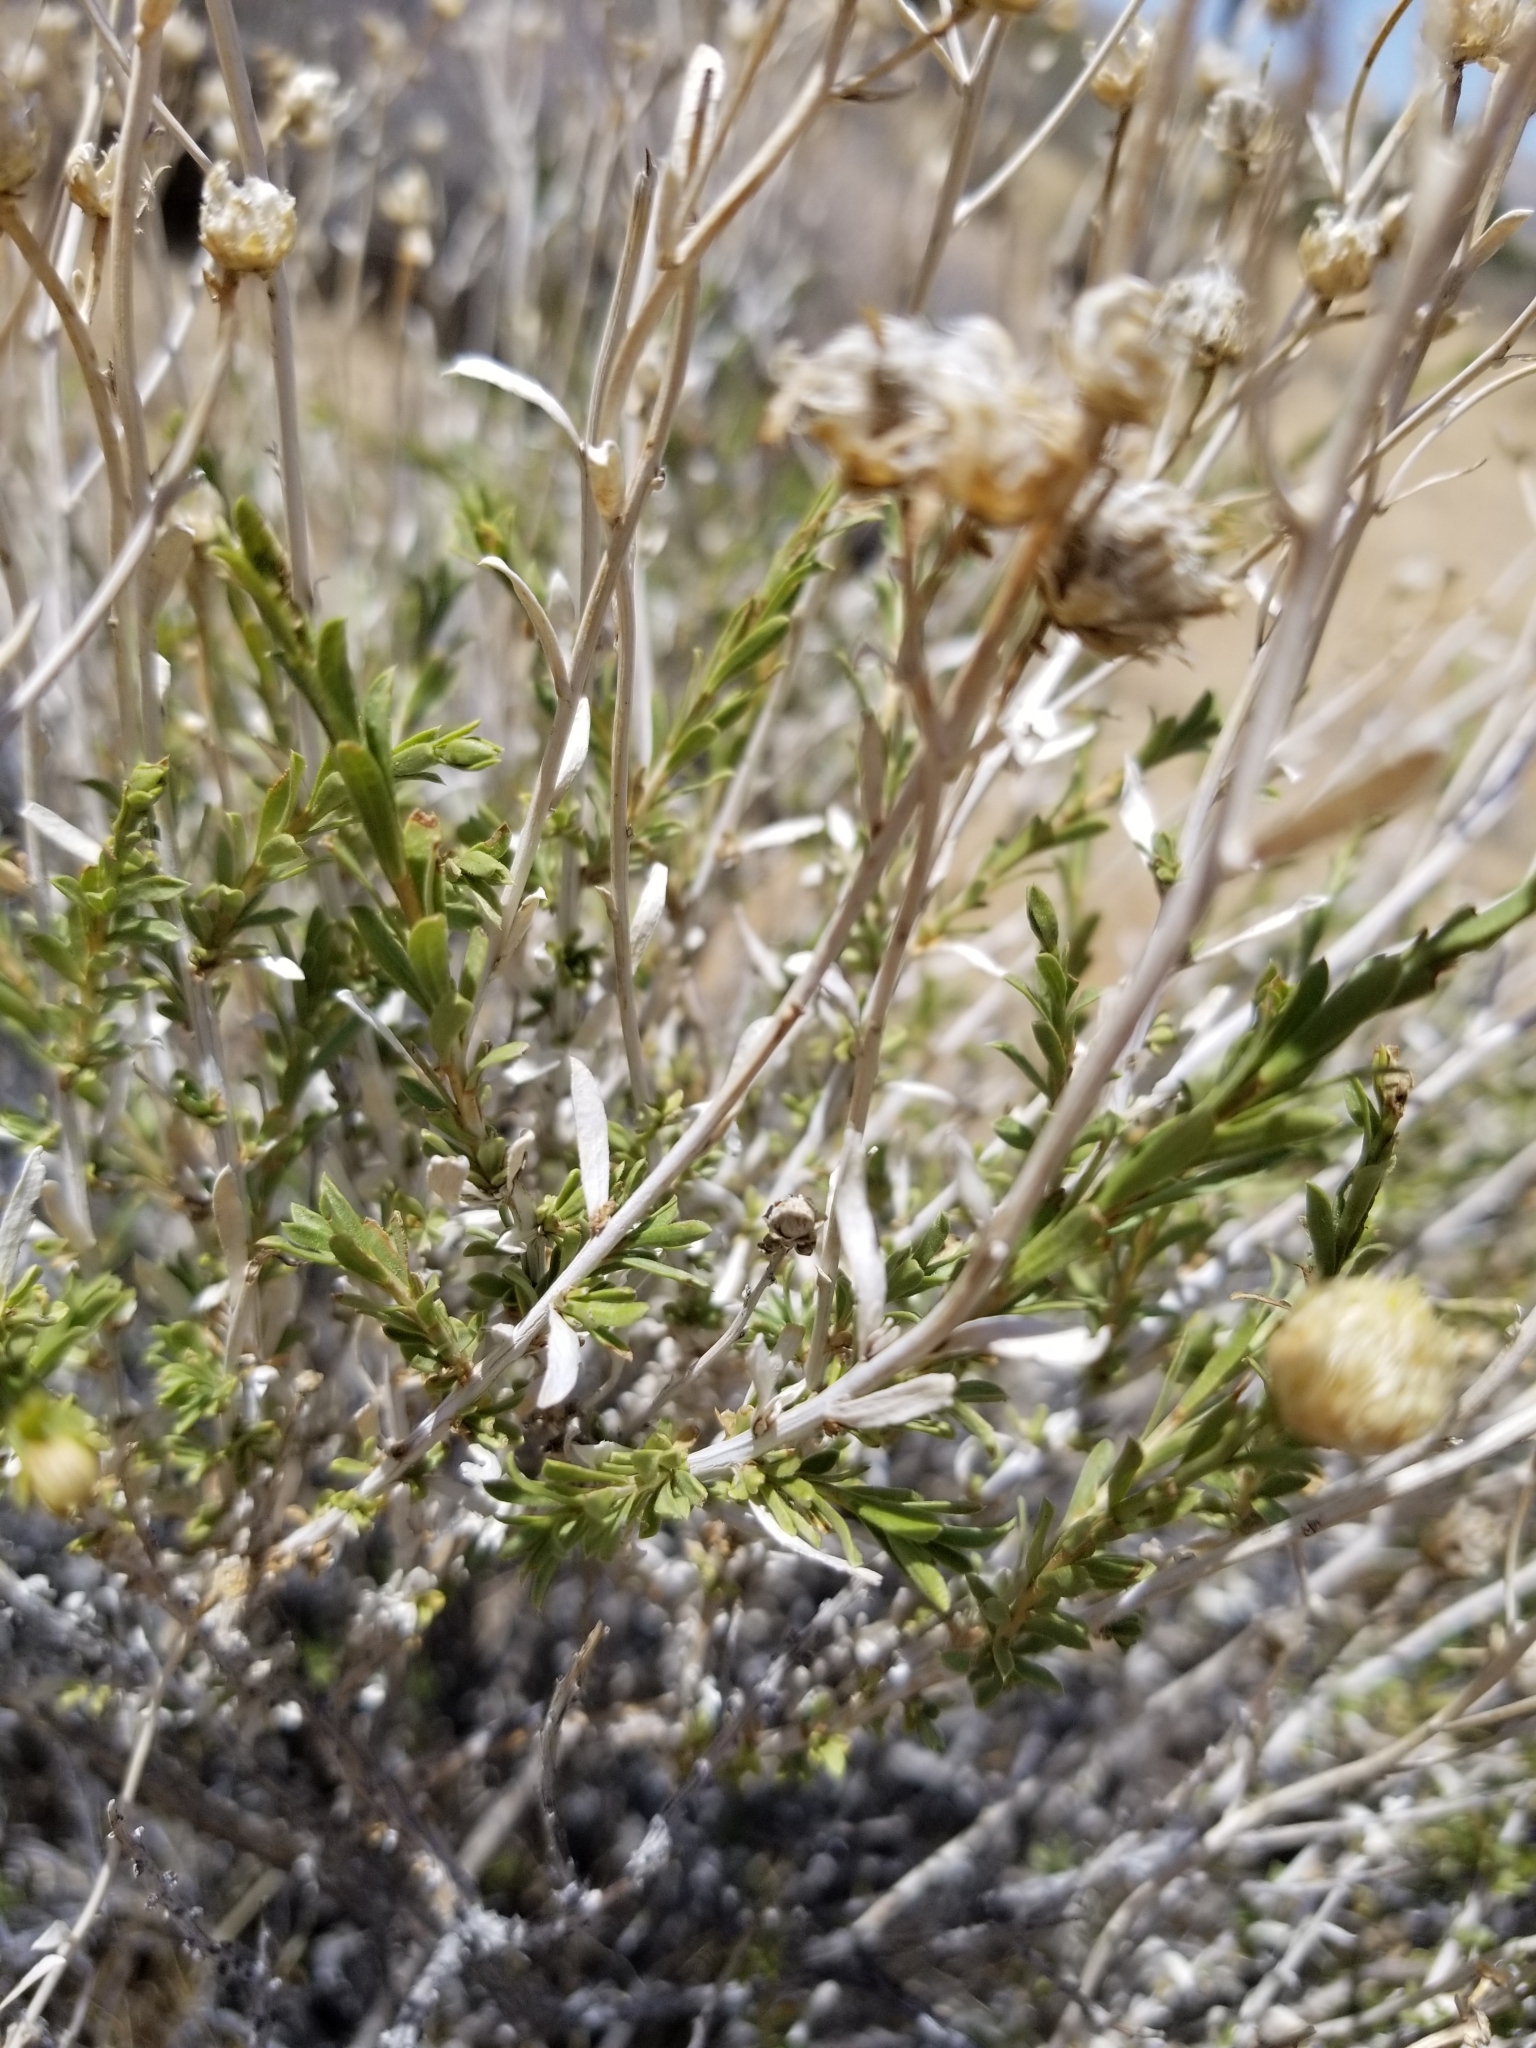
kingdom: Plantae
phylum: Tracheophyta
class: Magnoliopsida
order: Asterales
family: Asteraceae
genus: Acamptopappus
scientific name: Acamptopappus sphaerocephalus
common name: Goldenhead
